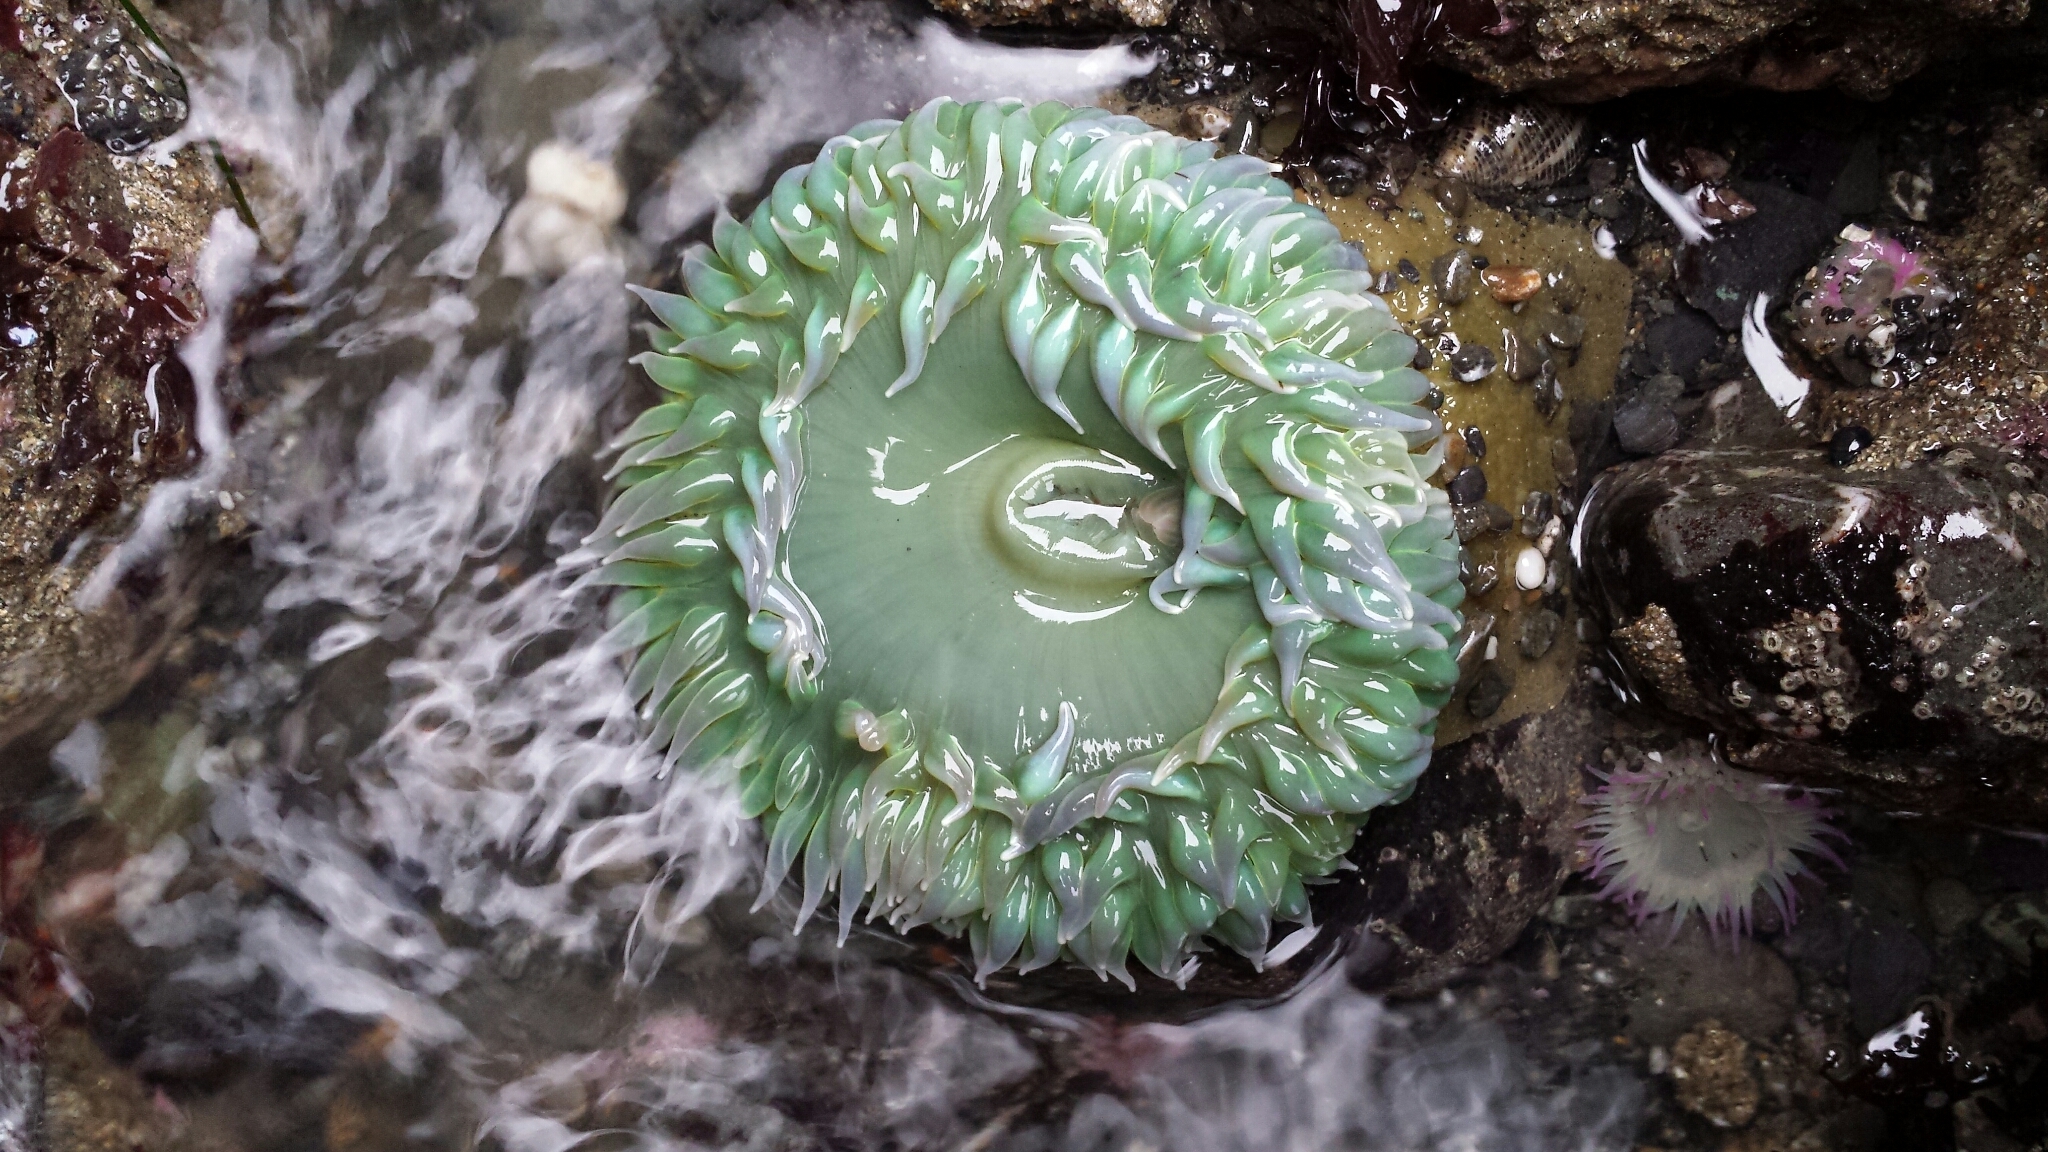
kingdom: Animalia
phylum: Cnidaria
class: Anthozoa
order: Actiniaria
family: Actiniidae
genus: Anthopleura
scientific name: Anthopleura xanthogrammica
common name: Giant green anemone
